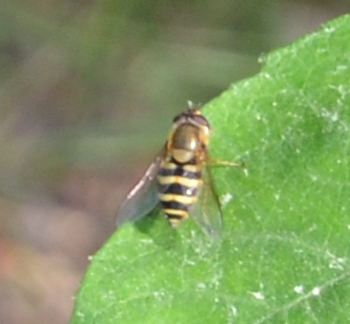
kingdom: Animalia
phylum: Arthropoda
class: Insecta
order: Diptera
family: Syrphidae
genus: Syrphus
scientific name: Syrphus
